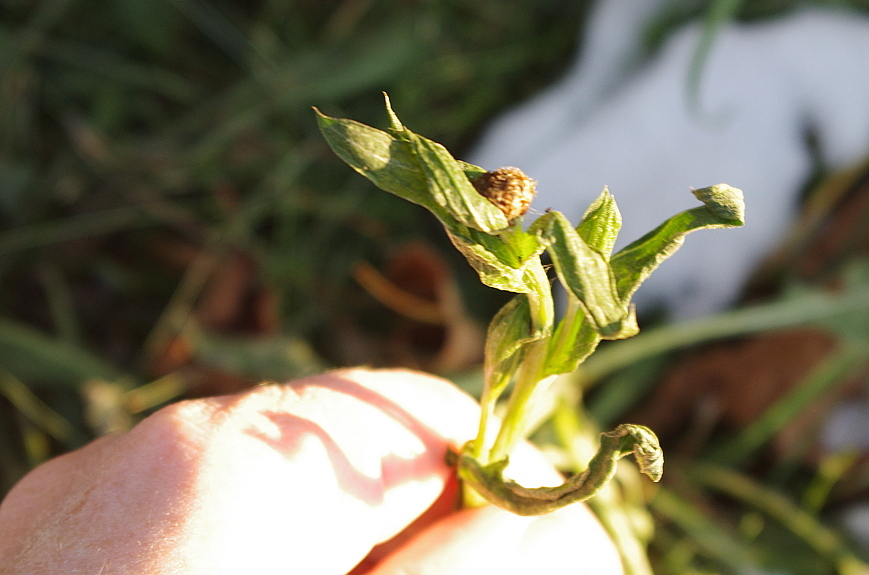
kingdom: Plantae
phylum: Tracheophyta
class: Magnoliopsida
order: Asterales
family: Asteraceae
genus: Centaurea
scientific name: Centaurea jacea
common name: Brown knapweed
